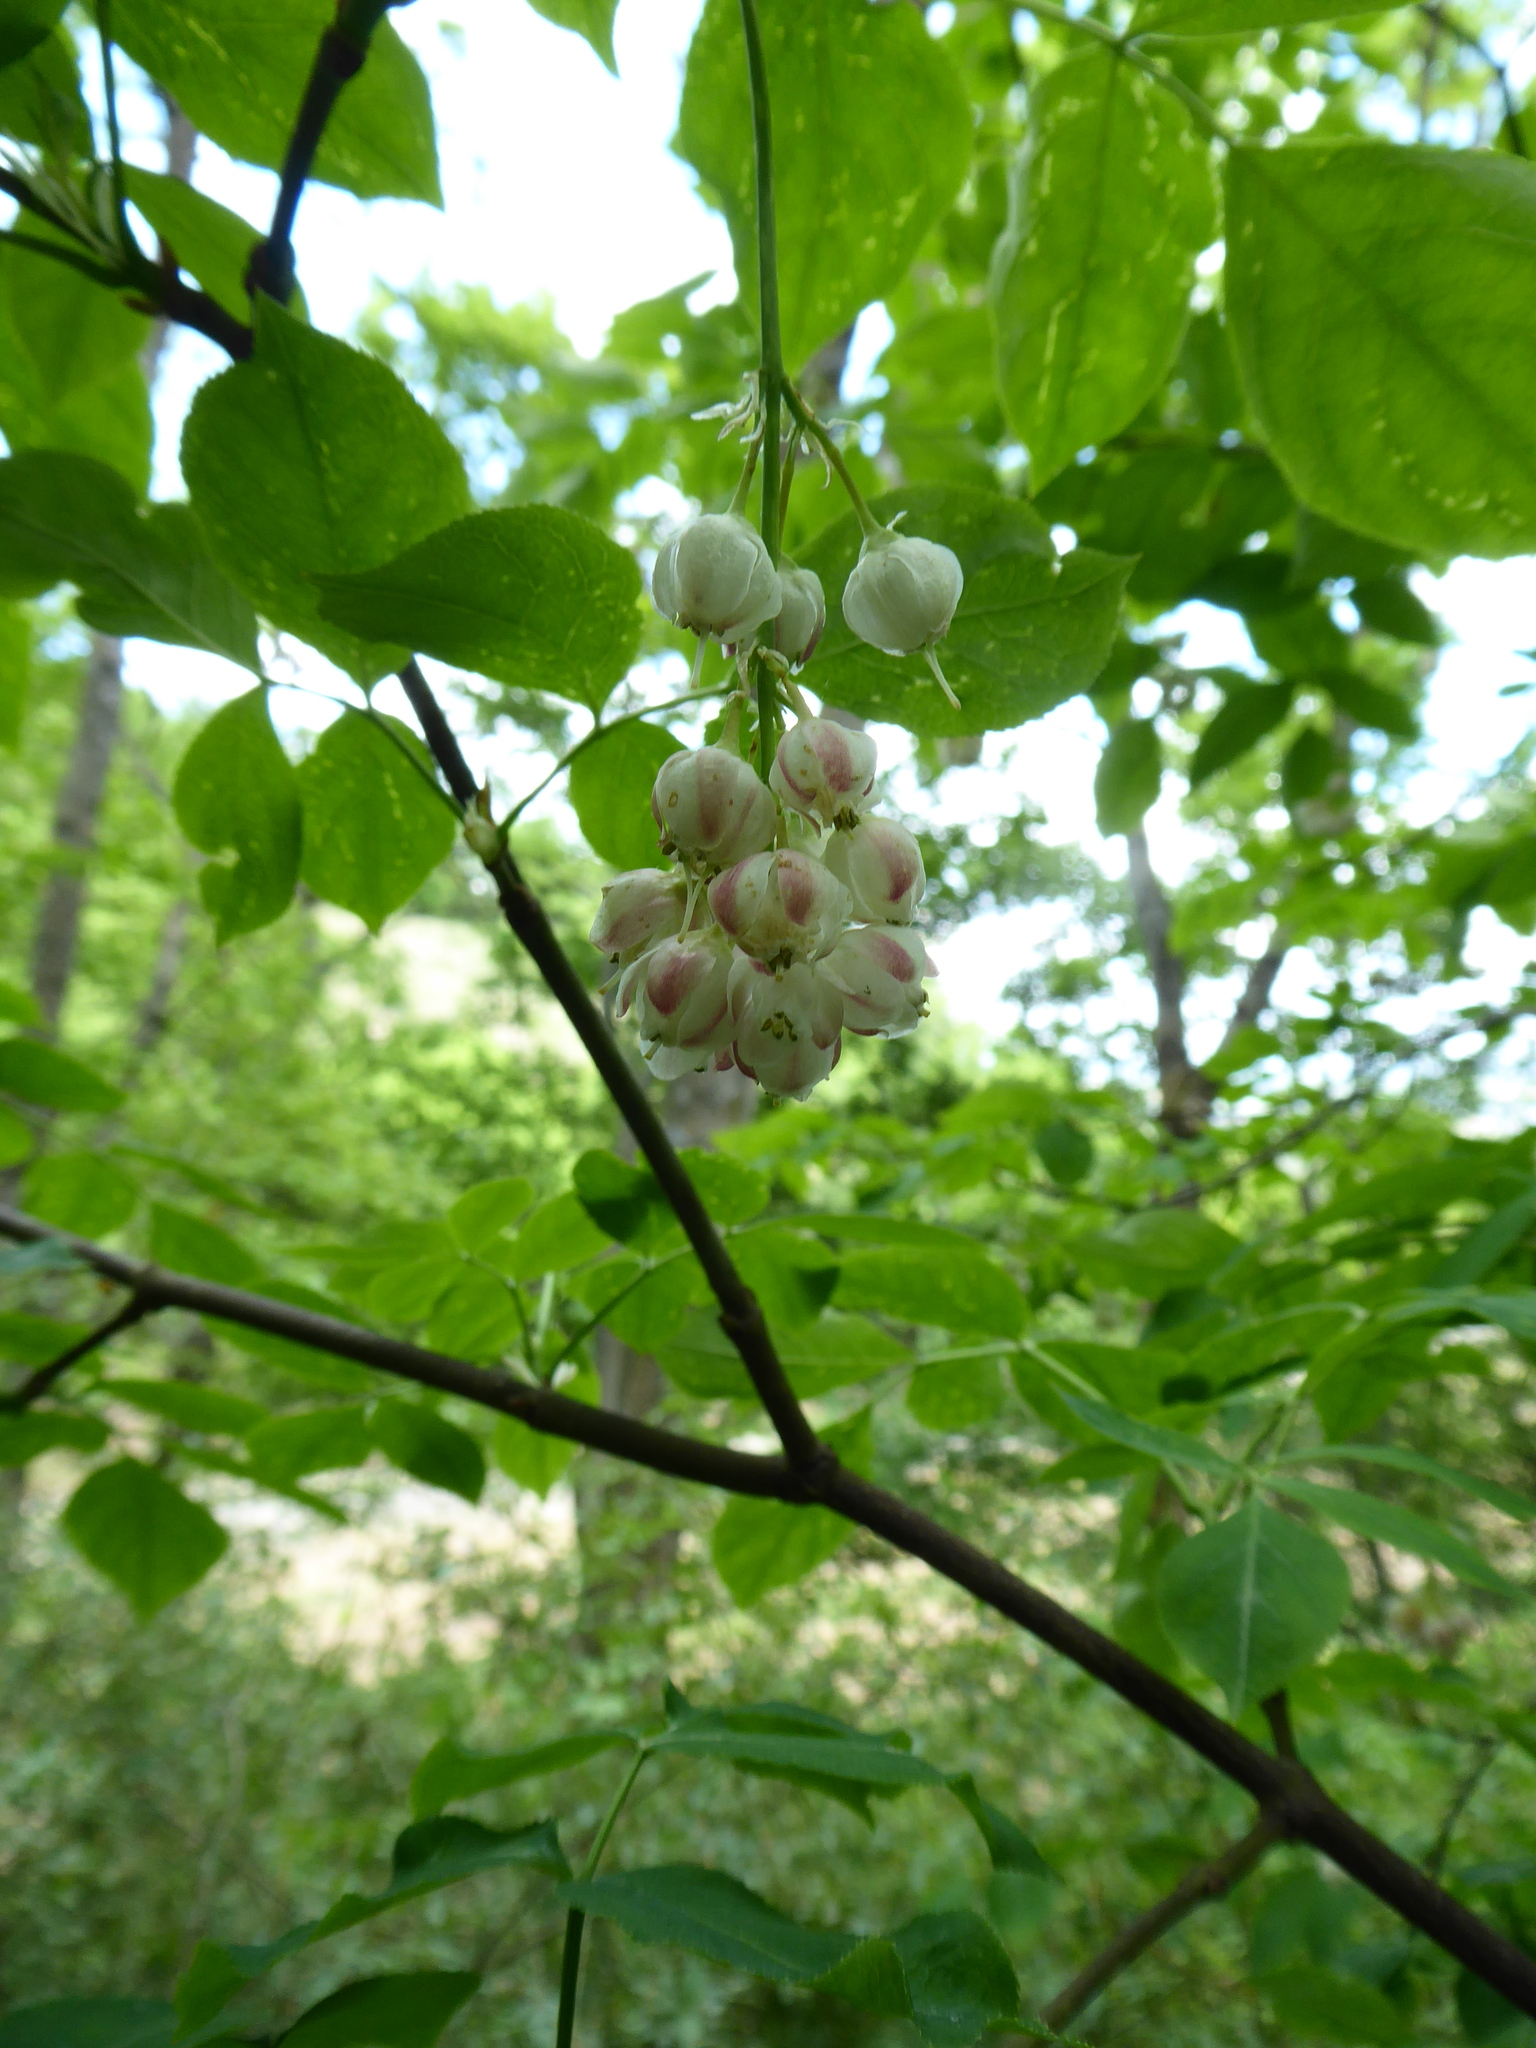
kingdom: Plantae
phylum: Tracheophyta
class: Magnoliopsida
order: Crossosomatales
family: Staphyleaceae
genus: Staphylea
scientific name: Staphylea pinnata
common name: Bladdernut
